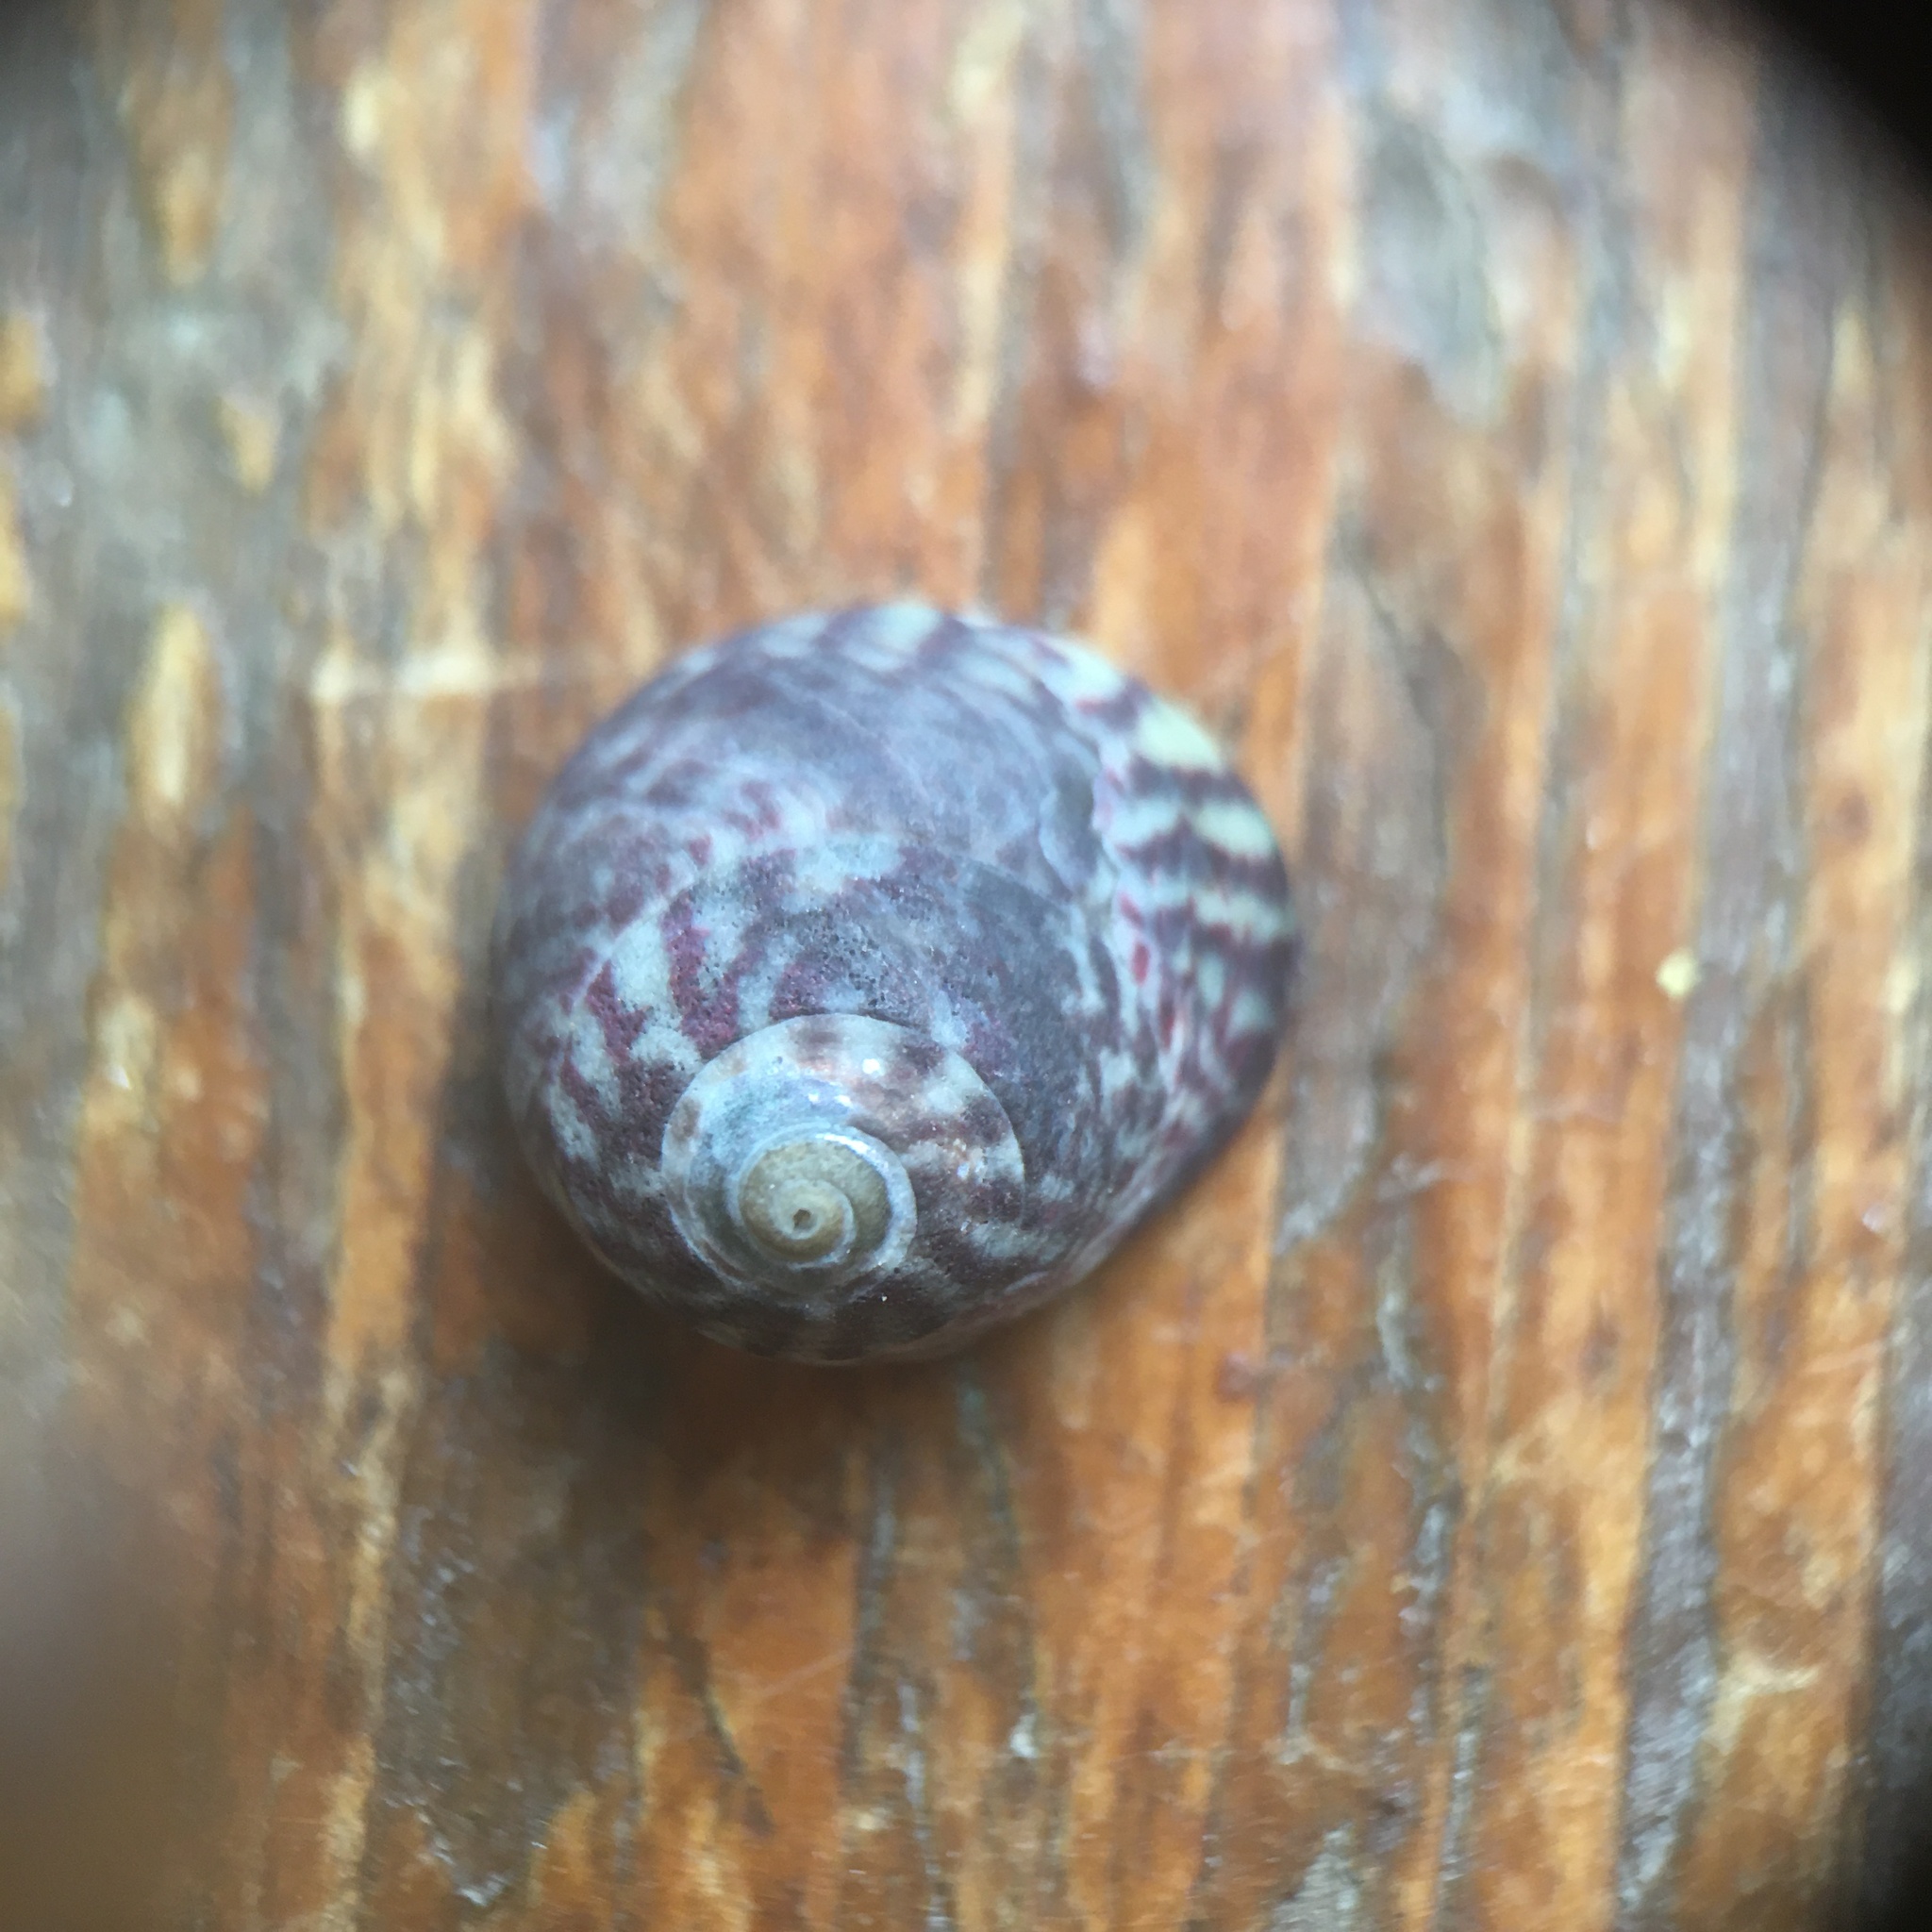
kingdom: Animalia
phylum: Mollusca
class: Gastropoda
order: Trochida
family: Trochidae
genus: Steromphala
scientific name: Steromphala umbilicalis
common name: Flat top shell
